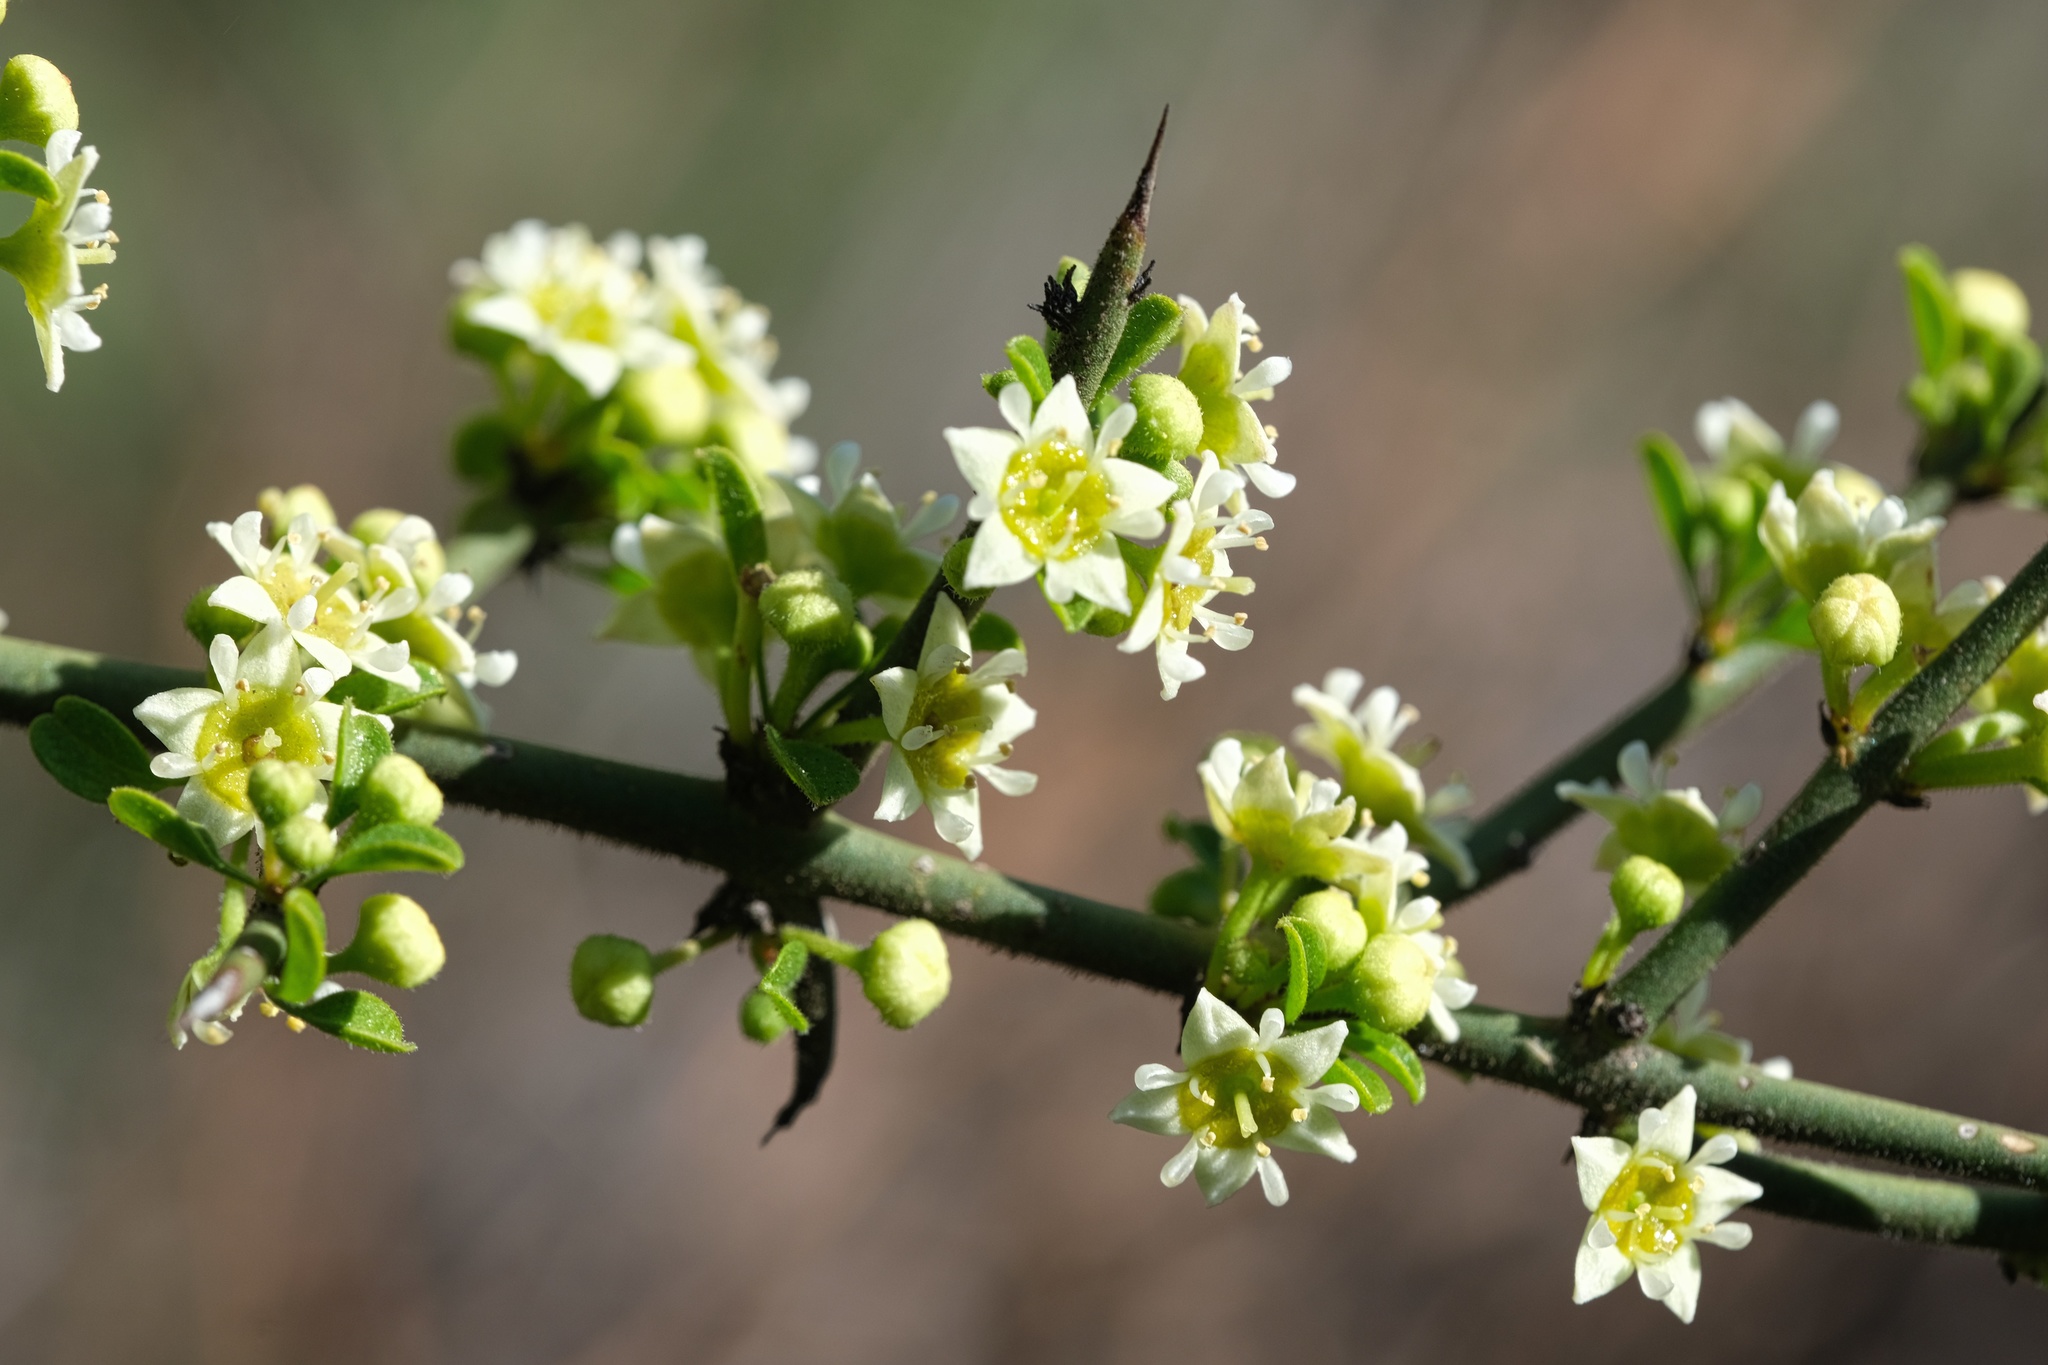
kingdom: Plantae
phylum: Tracheophyta
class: Magnoliopsida
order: Rosales
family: Rhamnaceae
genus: Adolphia
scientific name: Adolphia californica
